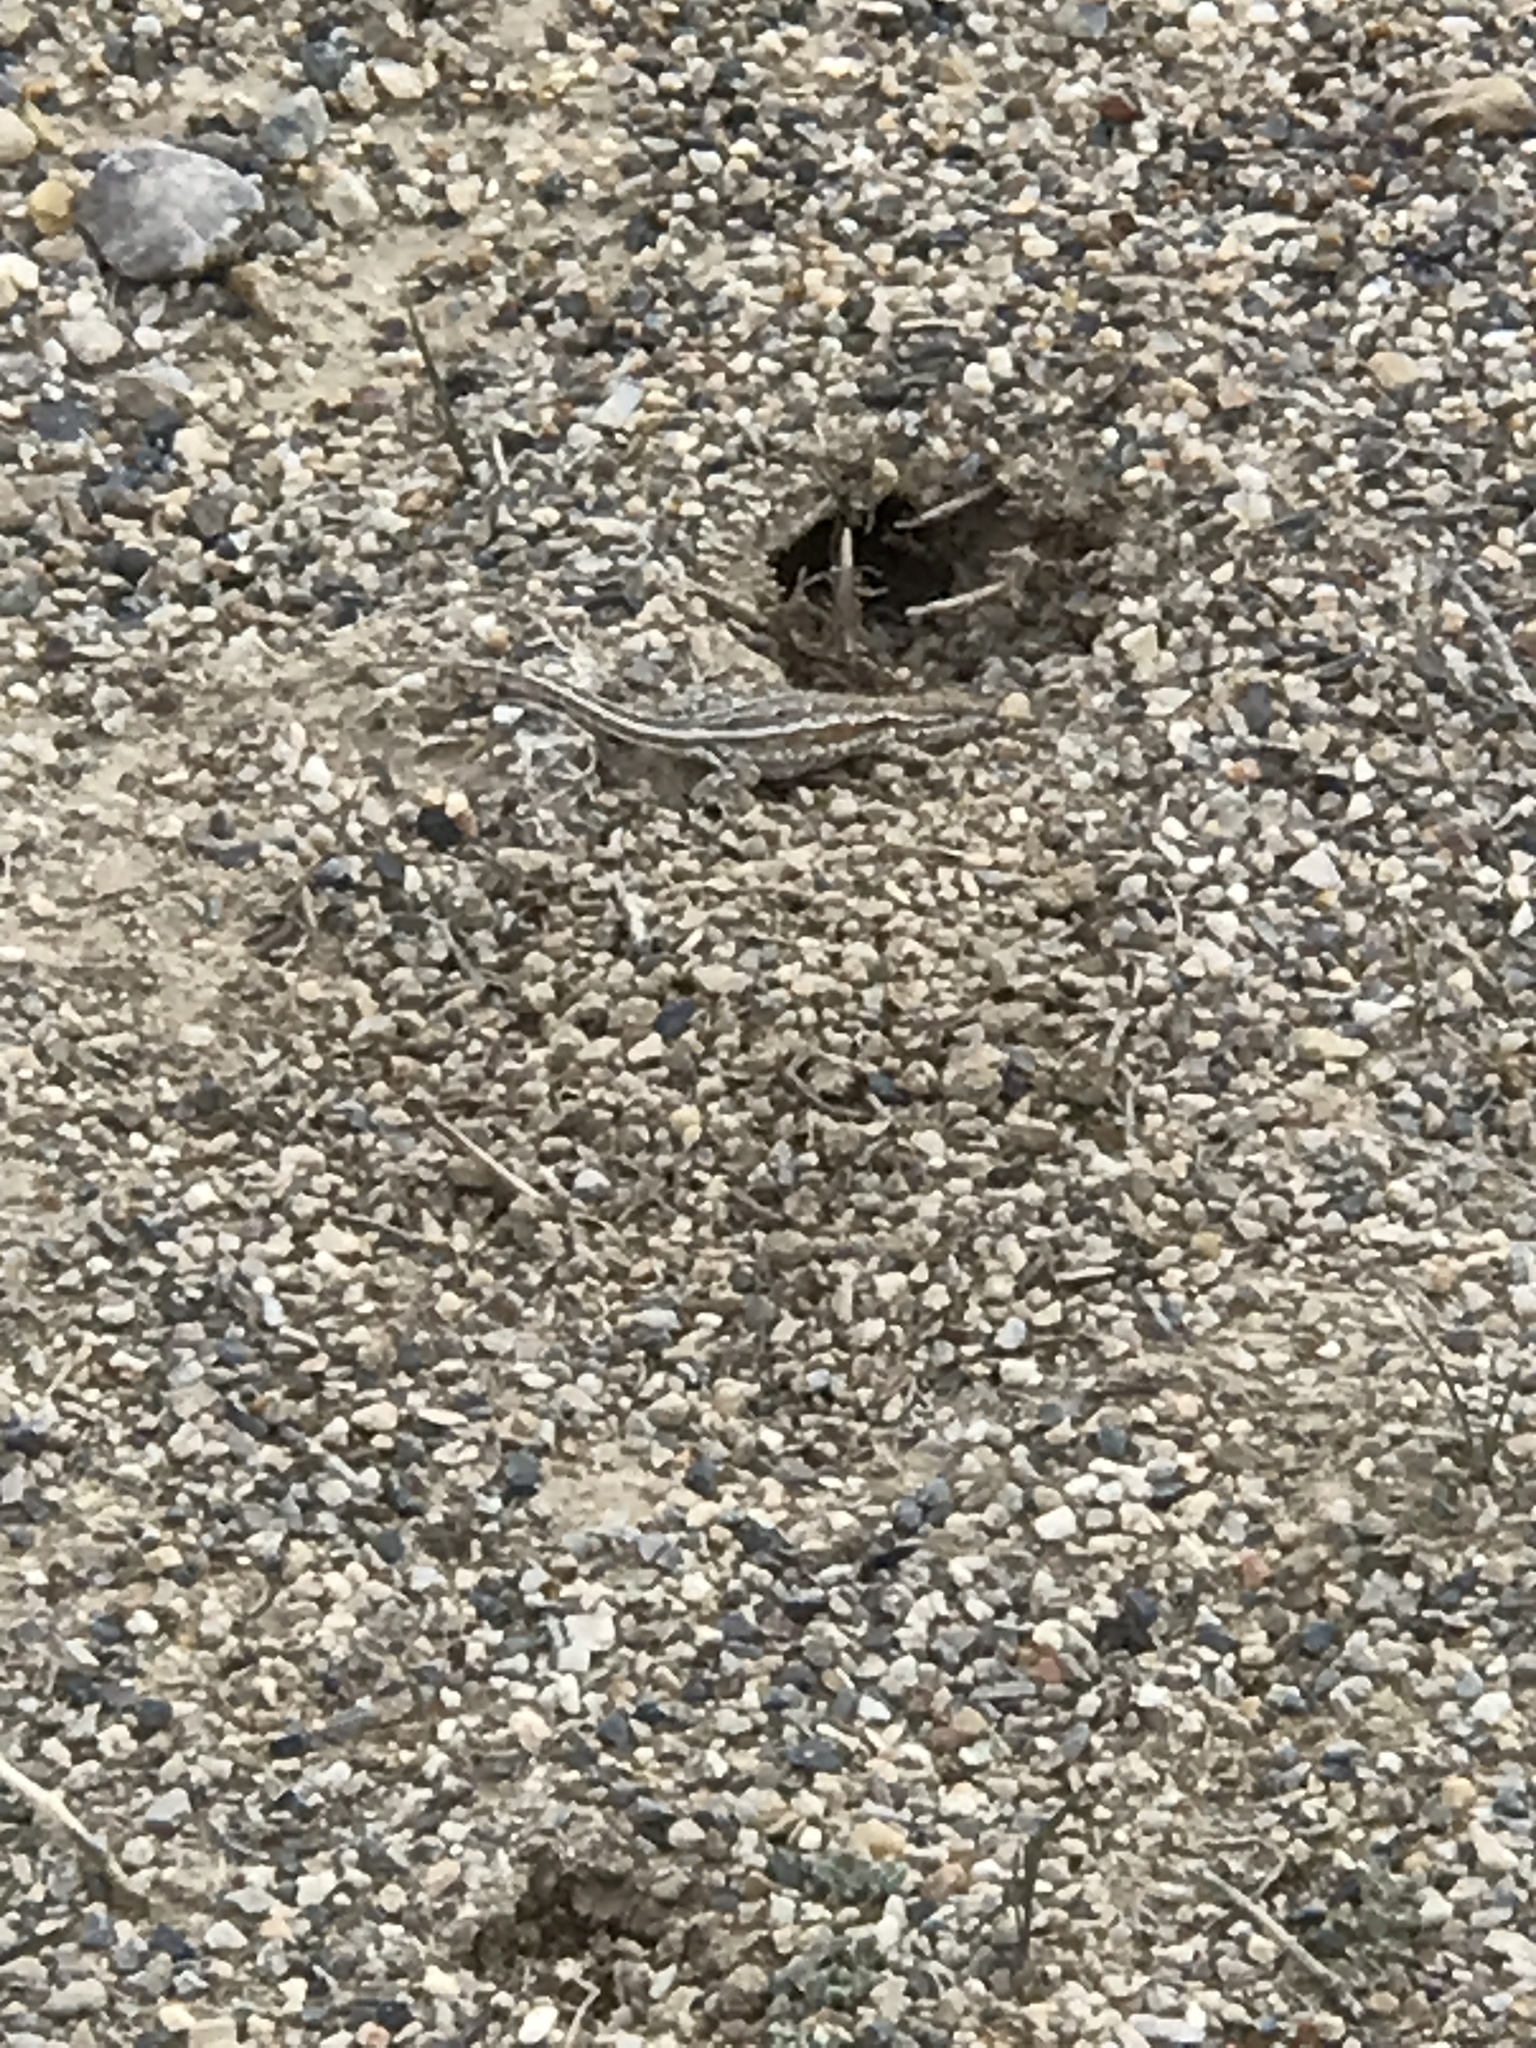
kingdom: Animalia
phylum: Chordata
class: Squamata
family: Phrynosomatidae
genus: Uta
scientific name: Uta stansburiana
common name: Side-blotched lizard
